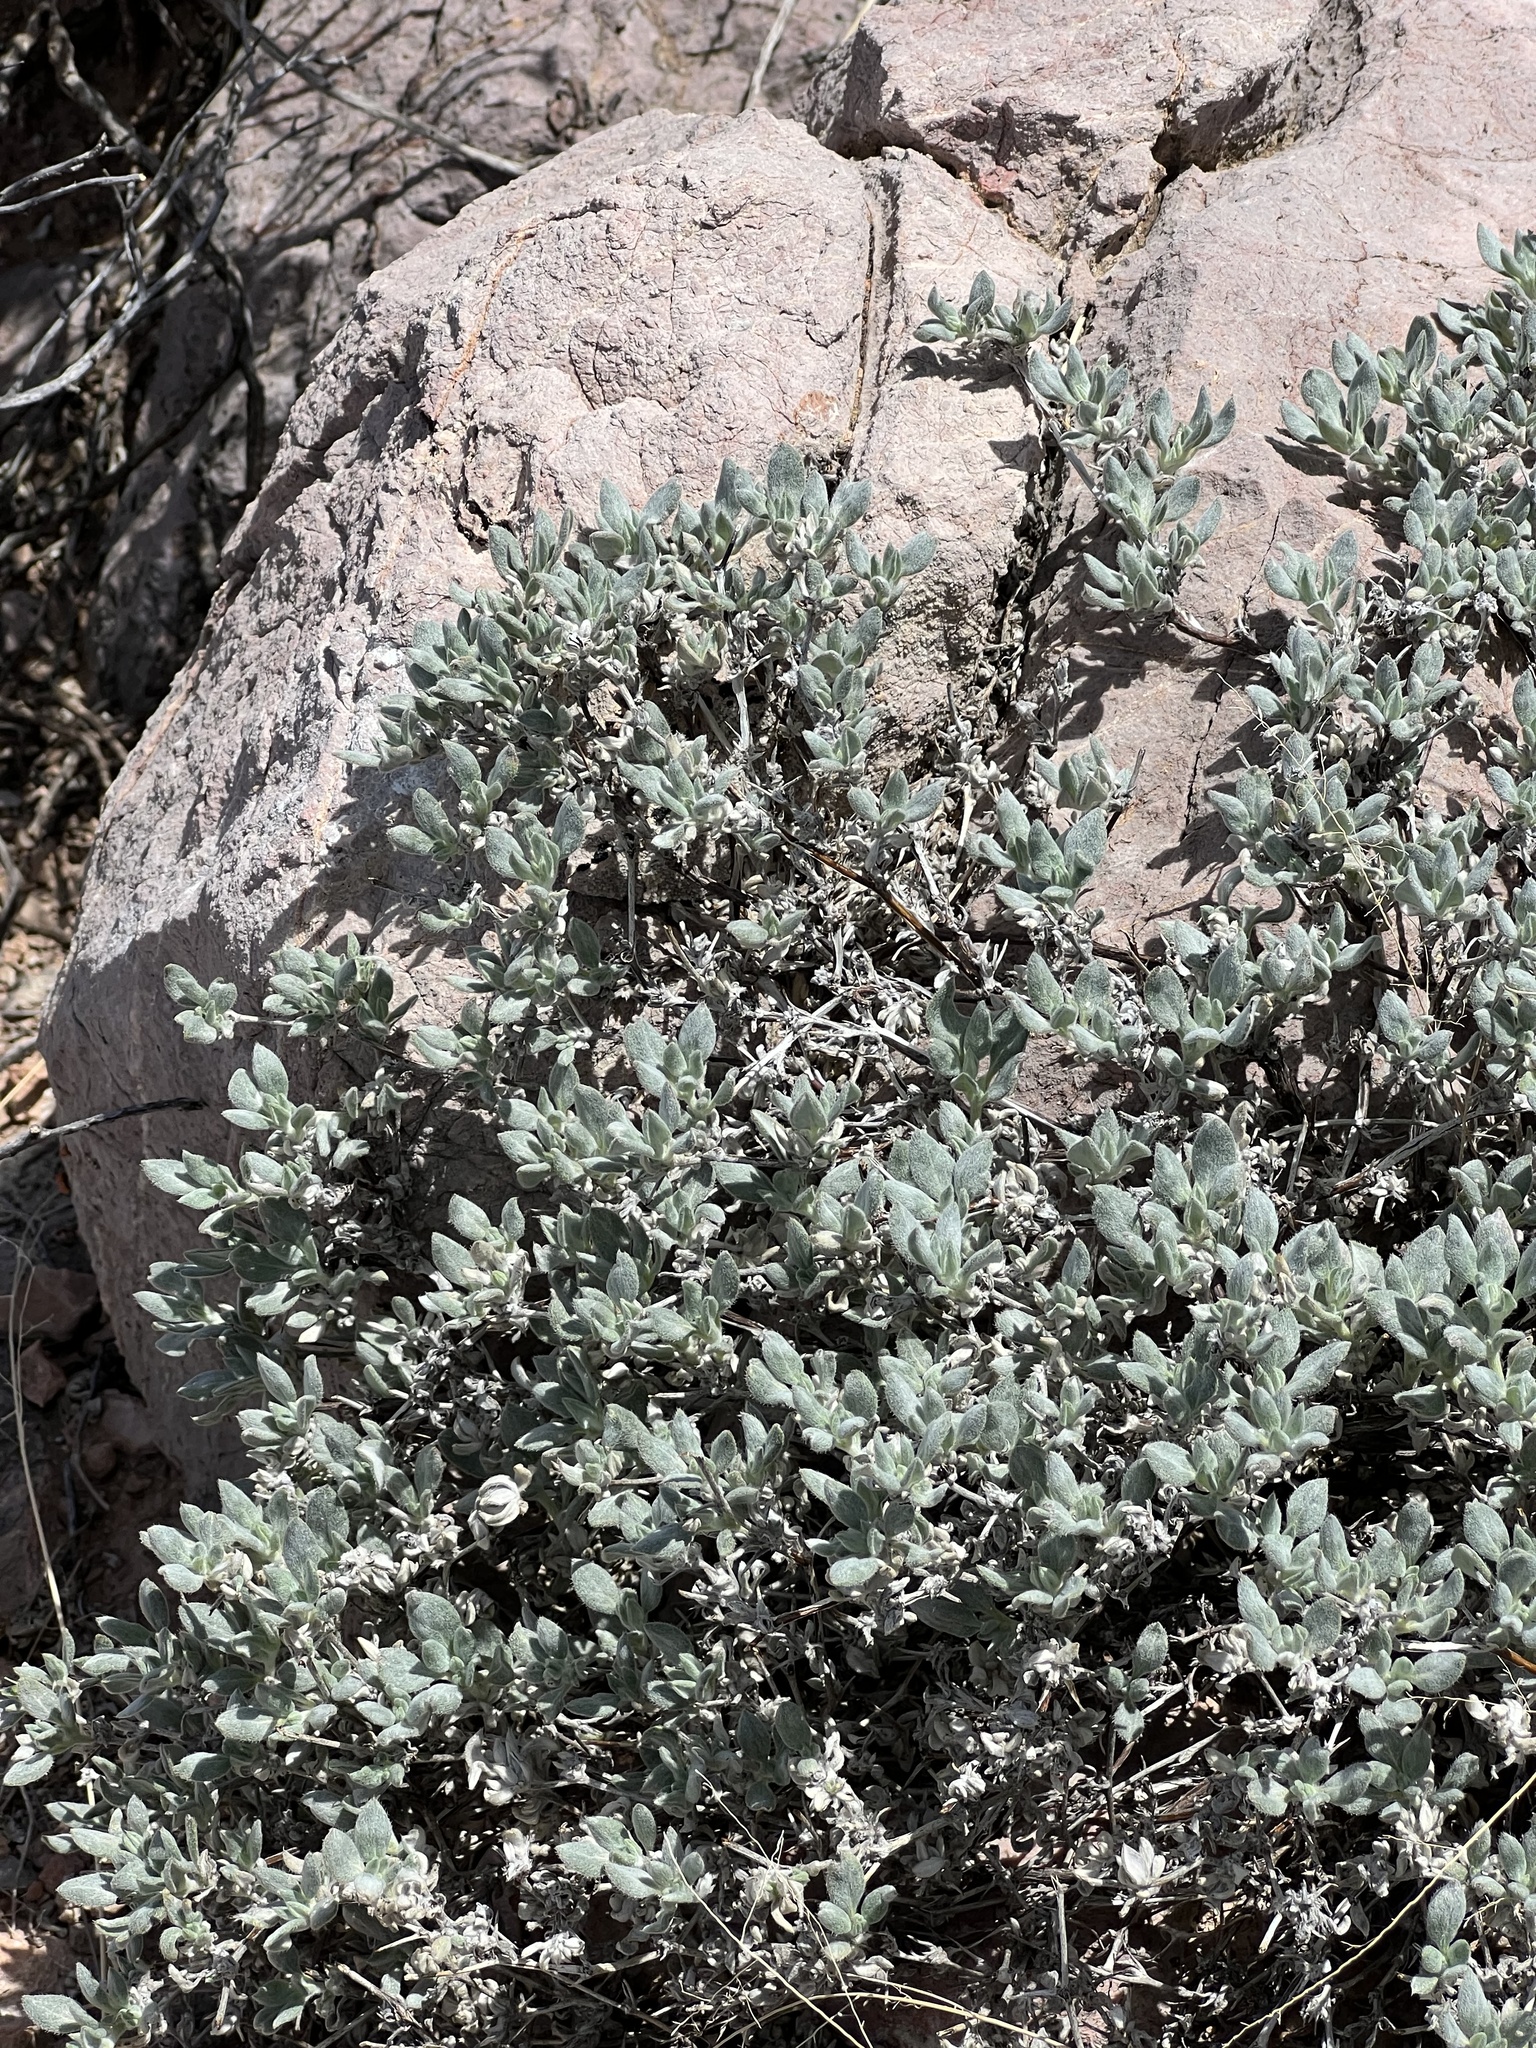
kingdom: Plantae
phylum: Tracheophyta
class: Magnoliopsida
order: Boraginales
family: Ehretiaceae
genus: Tiquilia
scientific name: Tiquilia canescens
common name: Hairy tiquilia
